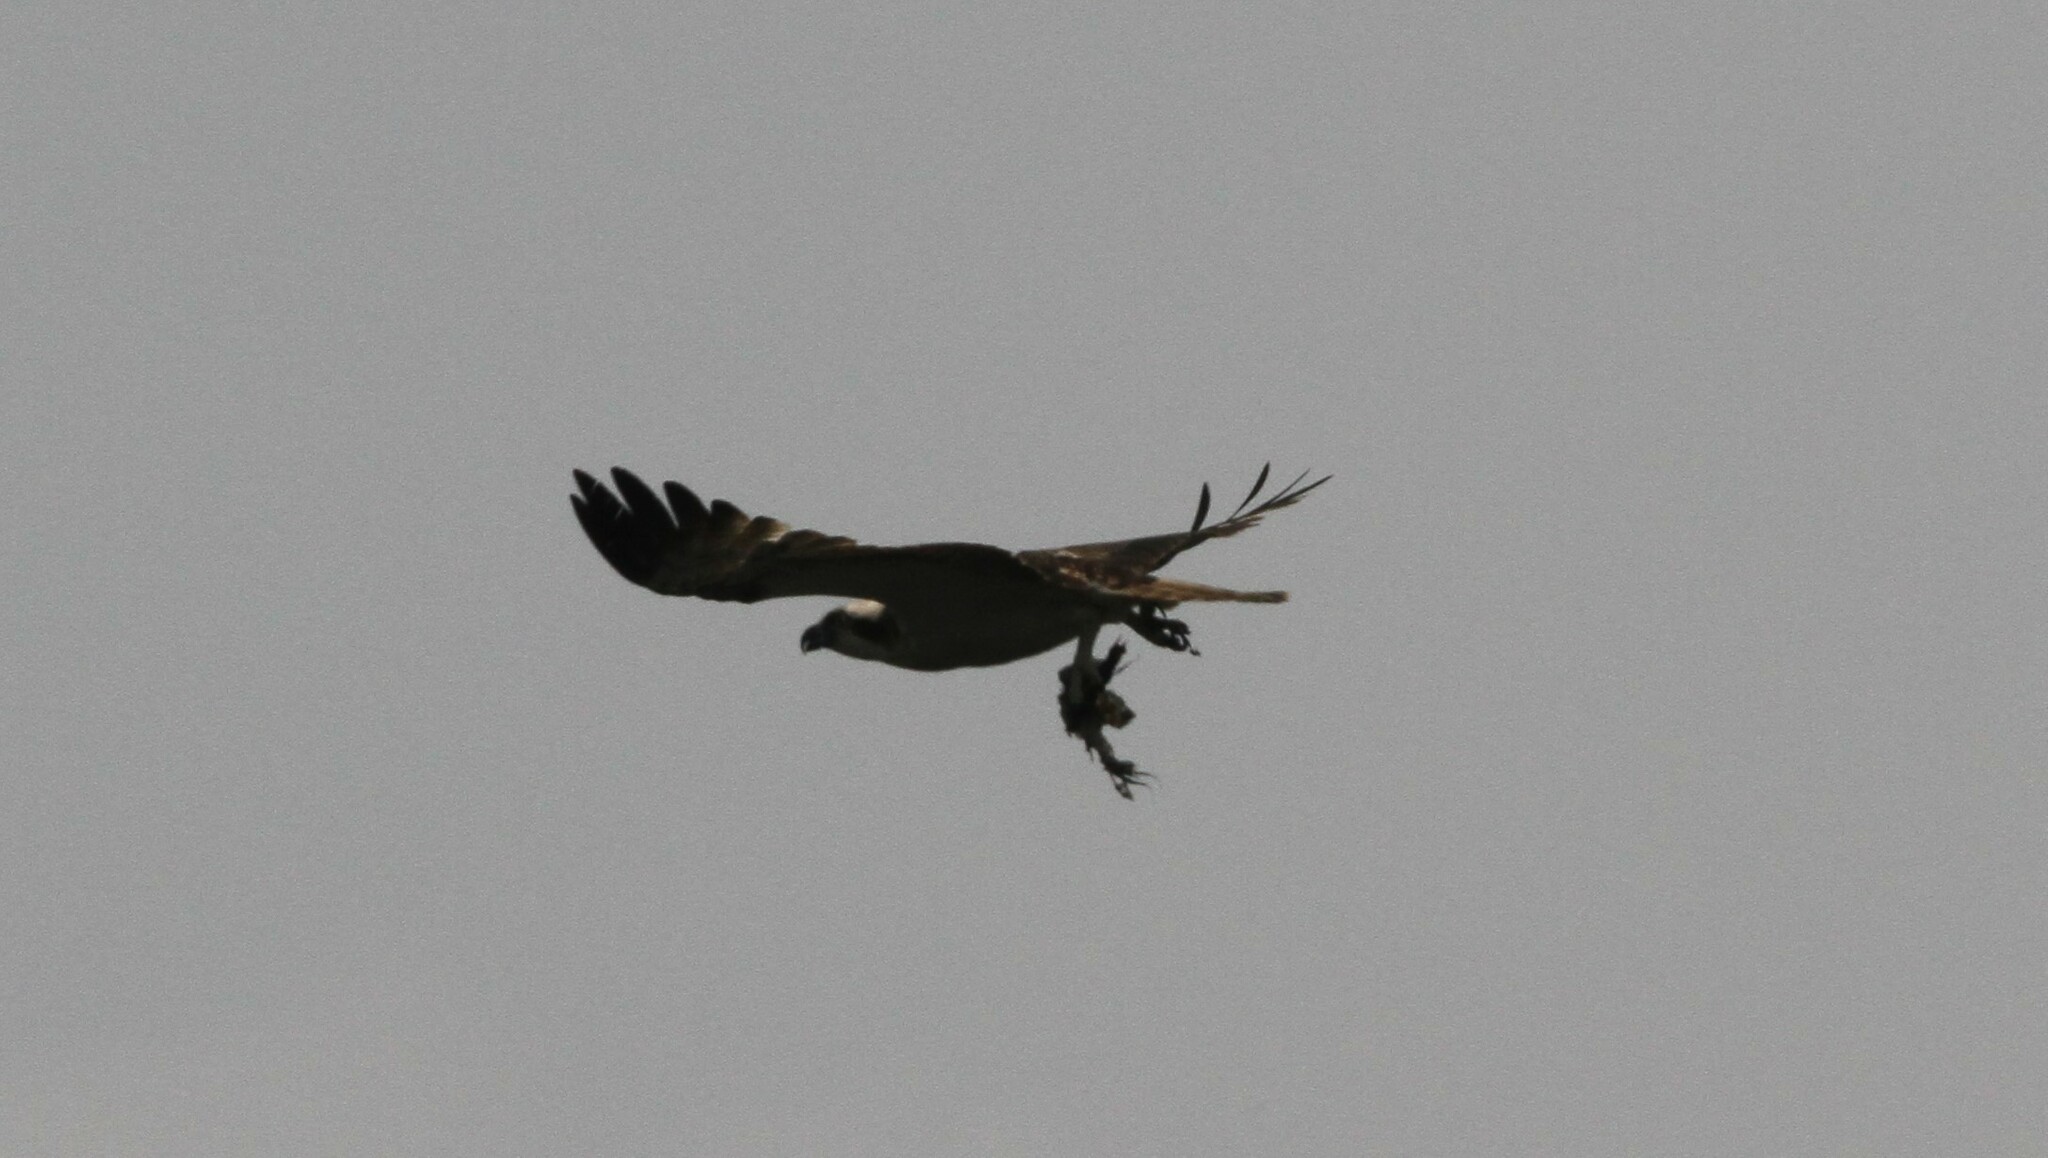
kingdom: Animalia
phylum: Chordata
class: Aves
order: Accipitriformes
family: Pandionidae
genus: Pandion
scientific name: Pandion haliaetus
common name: Osprey
